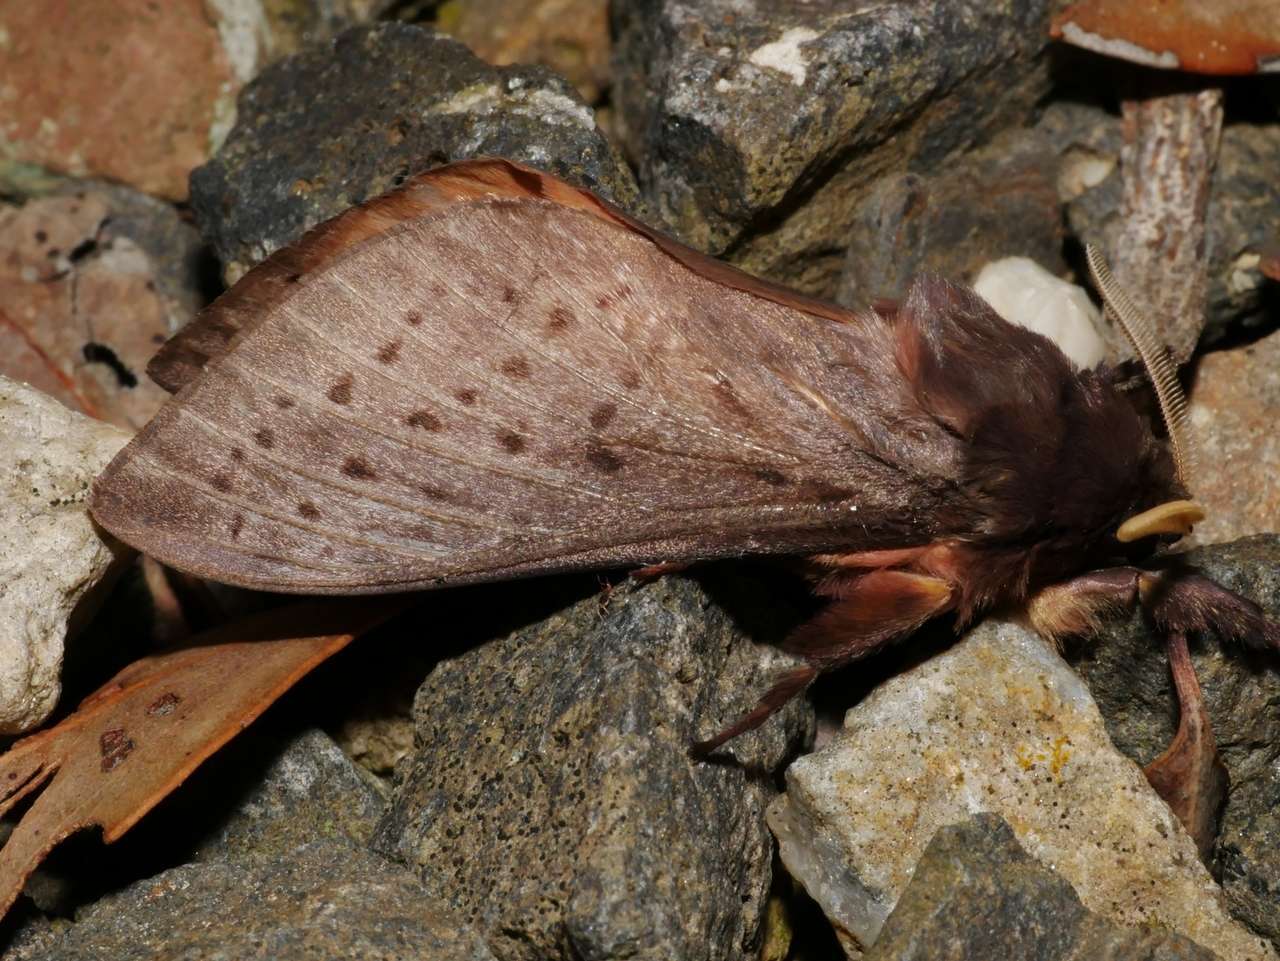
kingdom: Animalia
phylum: Arthropoda
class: Insecta
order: Lepidoptera
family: Hepialidae
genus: Oxycanus
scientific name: Oxycanus silvanus
